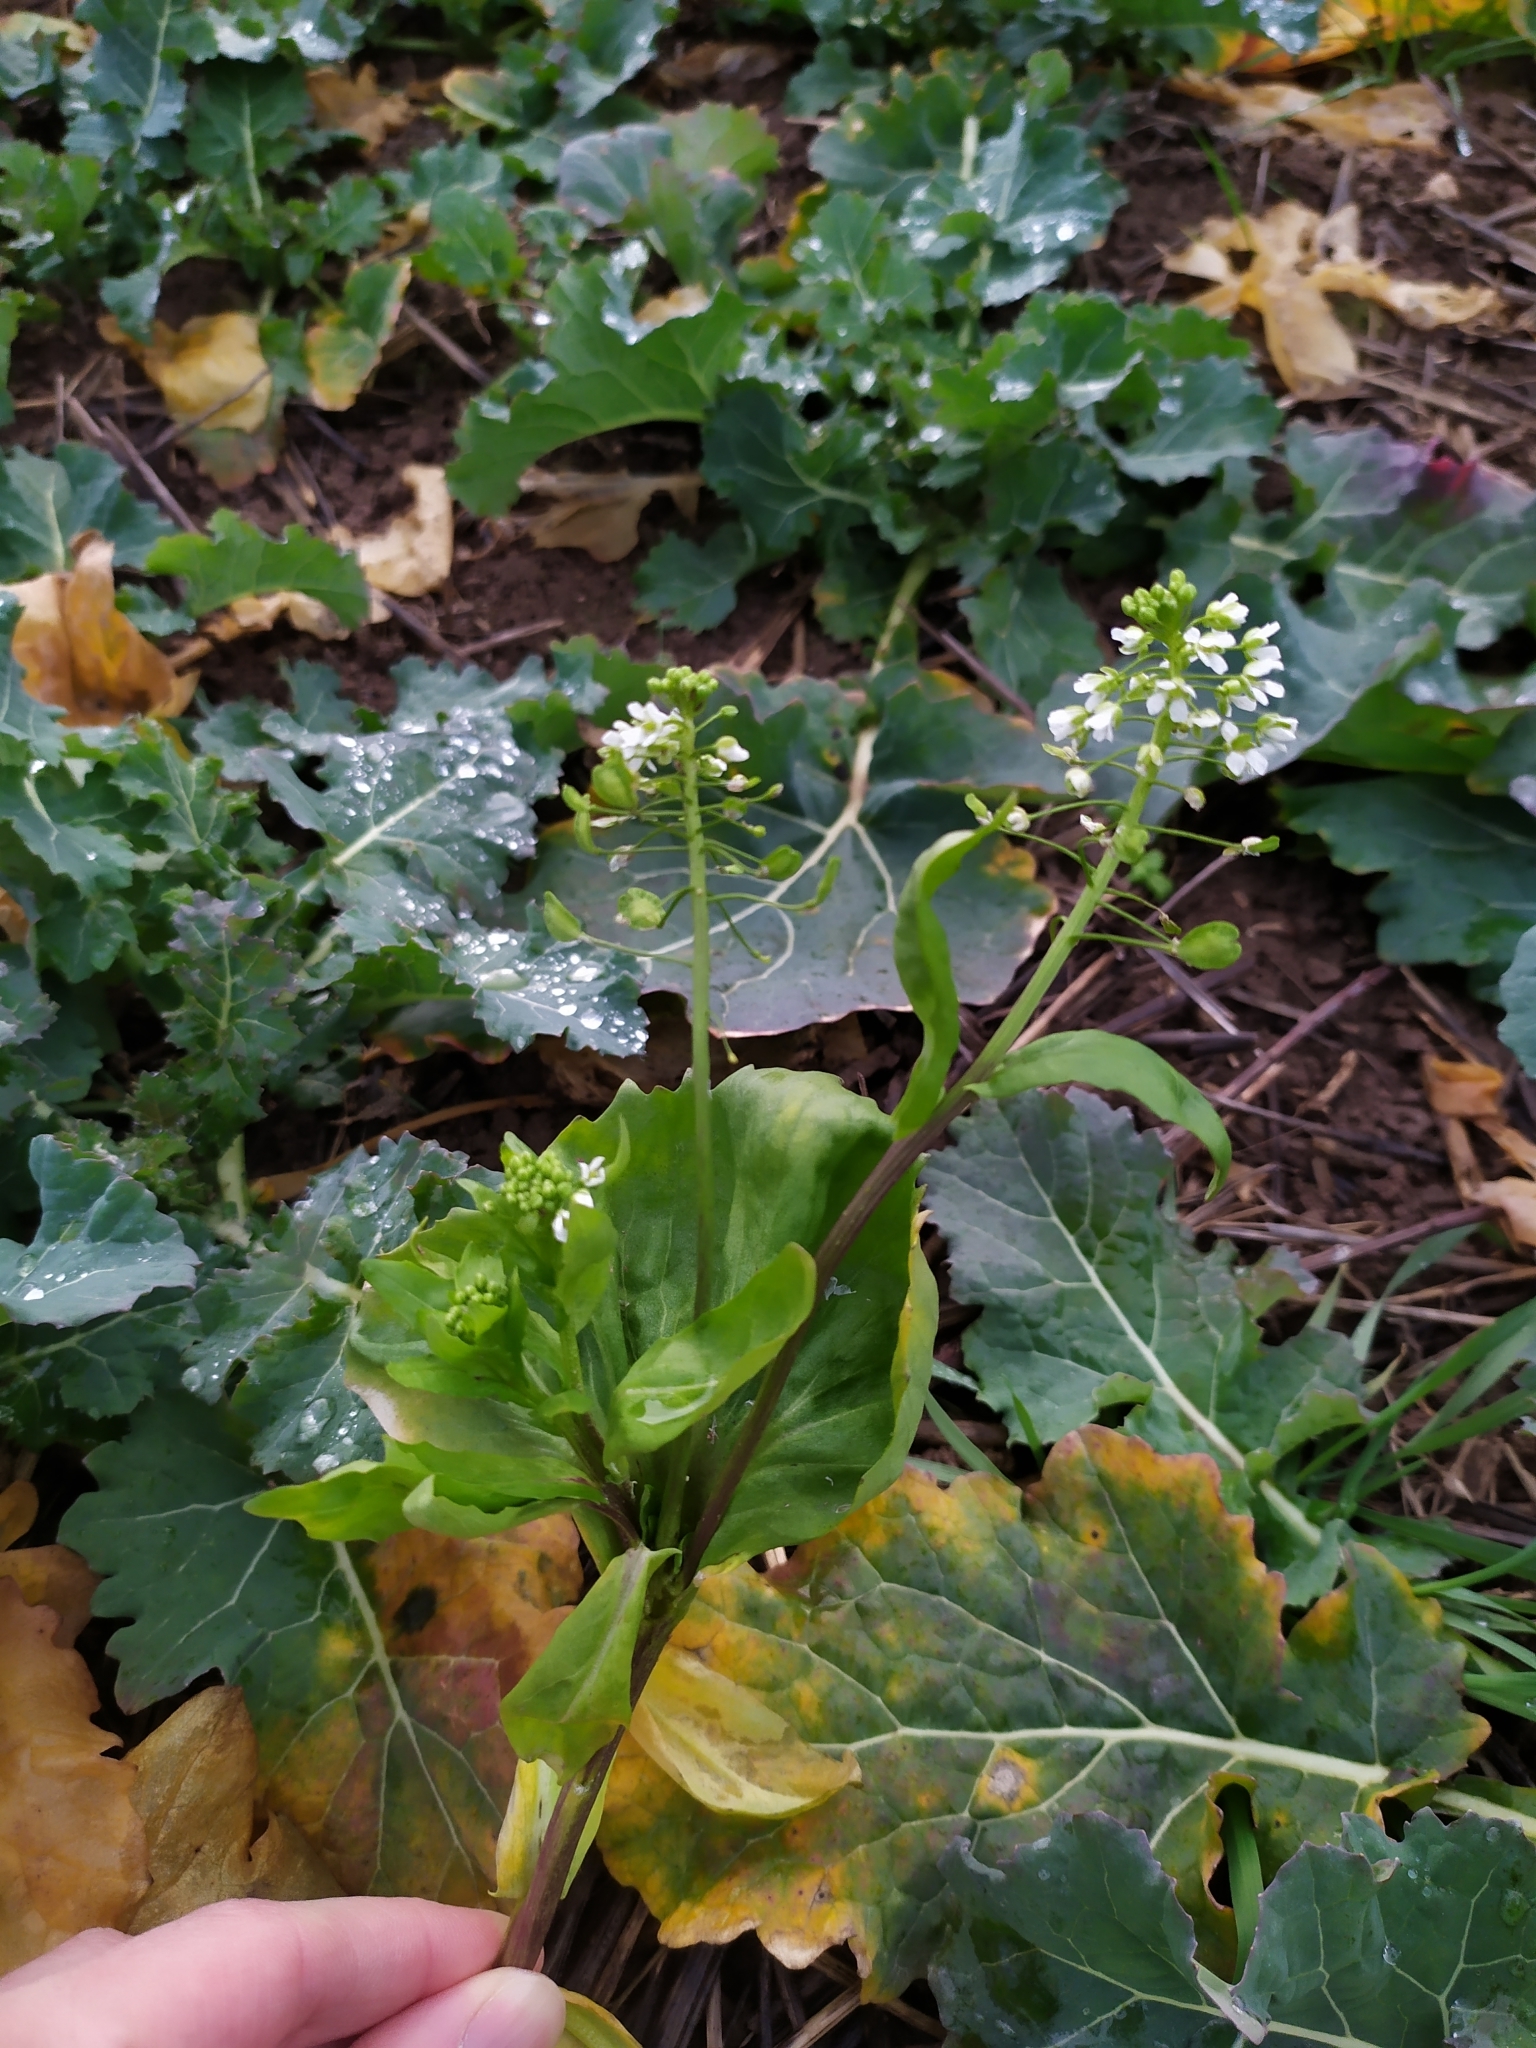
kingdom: Plantae
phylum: Tracheophyta
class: Magnoliopsida
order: Brassicales
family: Brassicaceae
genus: Thlaspi
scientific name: Thlaspi arvense
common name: Field pennycress
